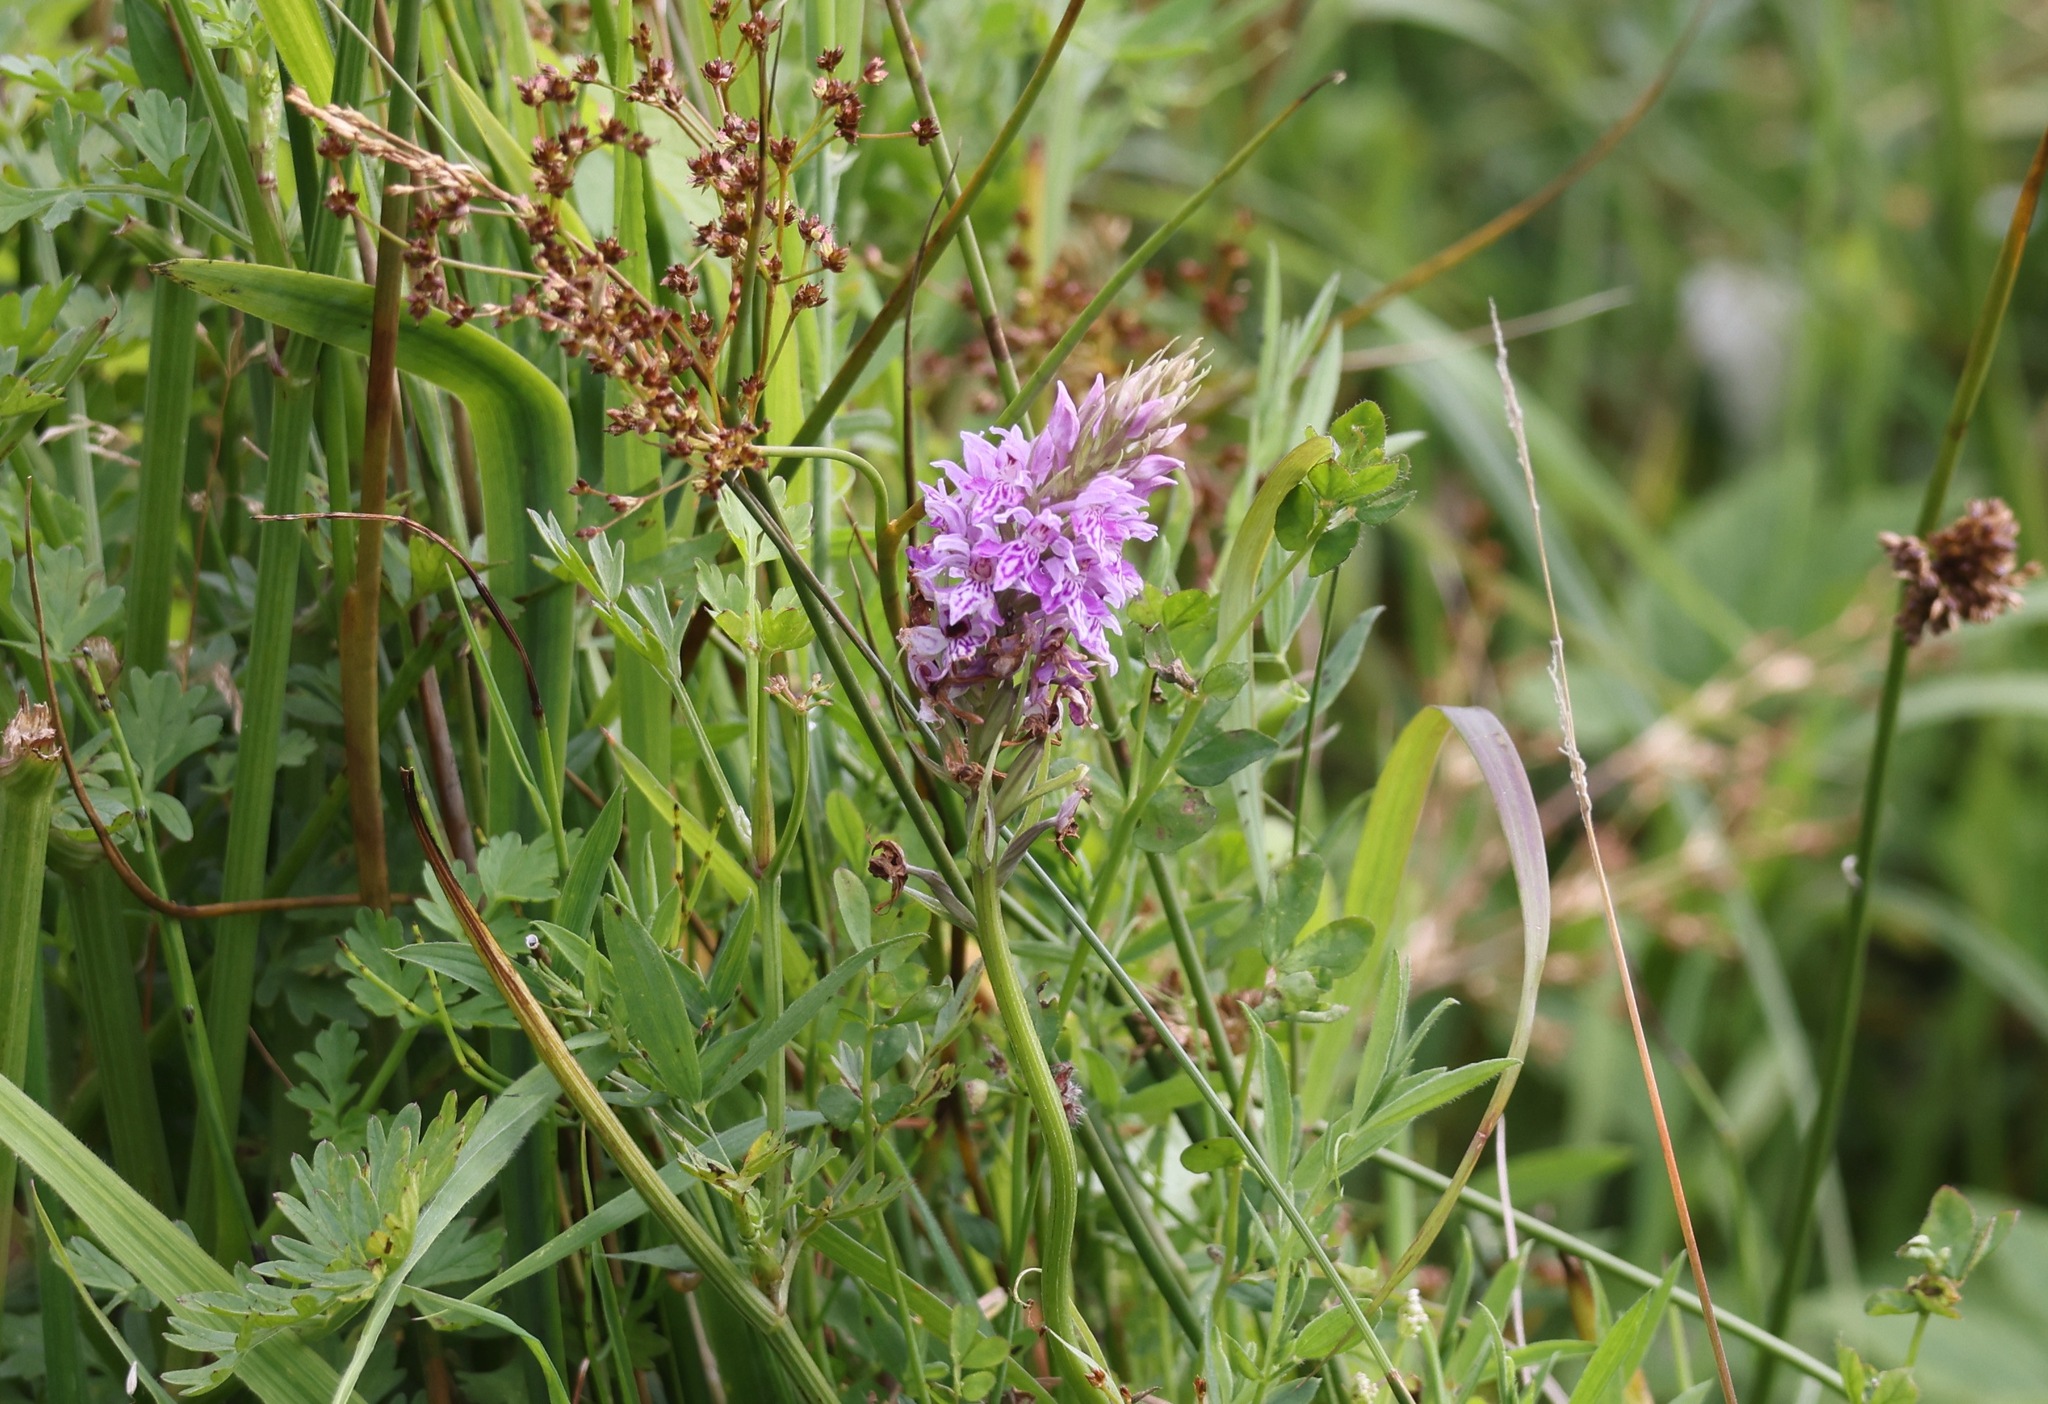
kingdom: Plantae
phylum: Tracheophyta
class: Liliopsida
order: Asparagales
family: Orchidaceae
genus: Dactylorhiza
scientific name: Dactylorhiza maculata
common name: Heath spotted-orchid
